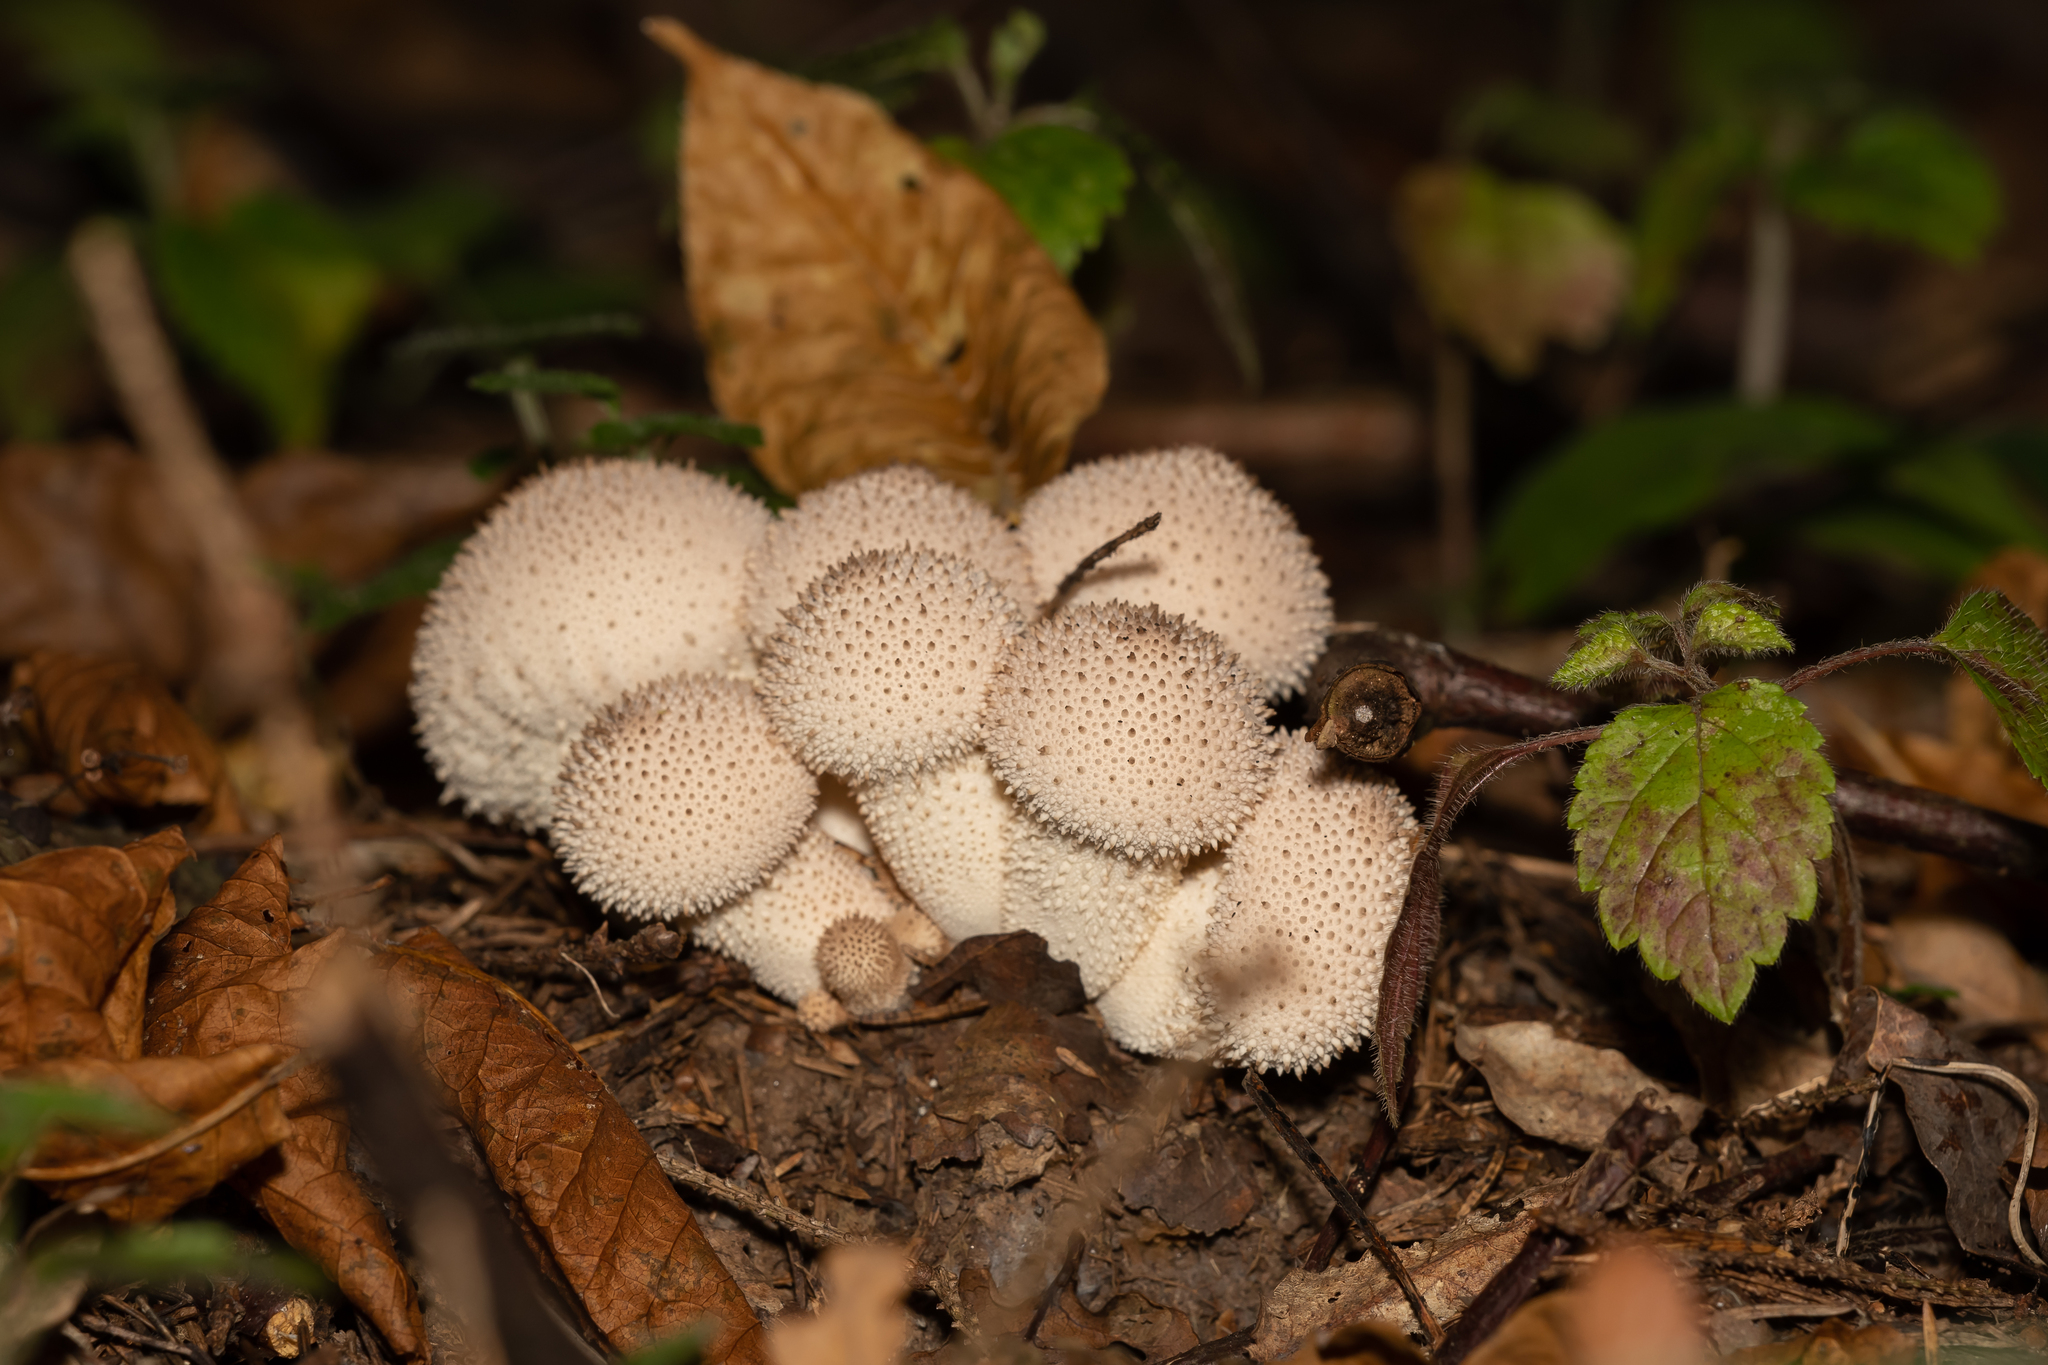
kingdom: Fungi
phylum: Basidiomycota
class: Agaricomycetes
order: Agaricales
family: Lycoperdaceae
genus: Lycoperdon
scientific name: Lycoperdon perlatum
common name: Common puffball
